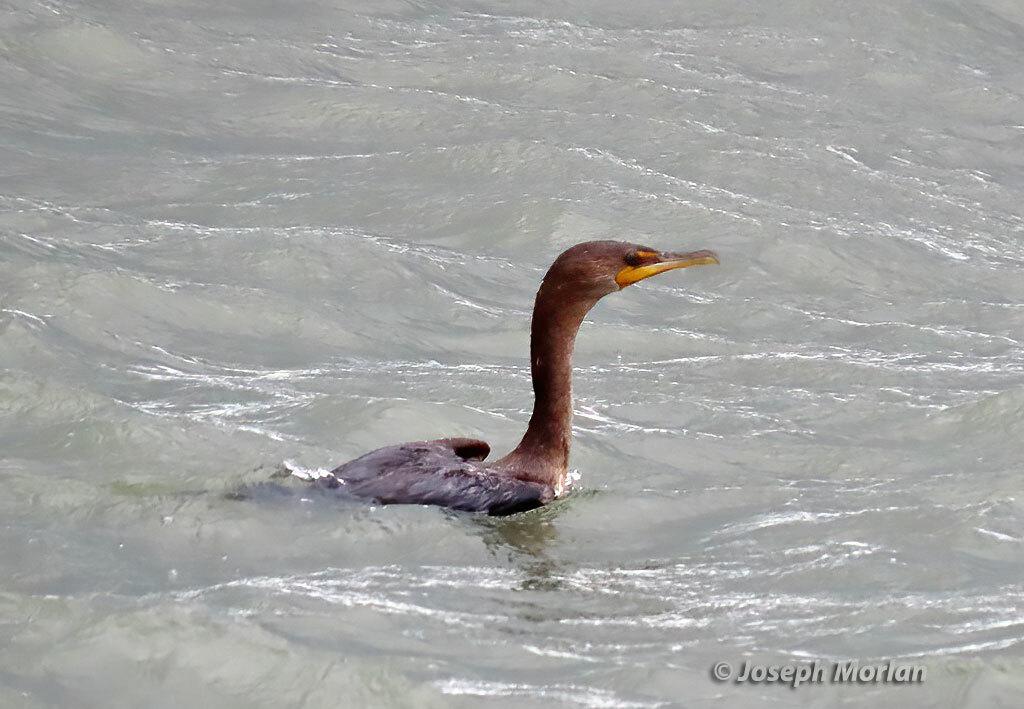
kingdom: Animalia
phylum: Chordata
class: Aves
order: Suliformes
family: Phalacrocoracidae
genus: Phalacrocorax
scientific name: Phalacrocorax auritus
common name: Double-crested cormorant
